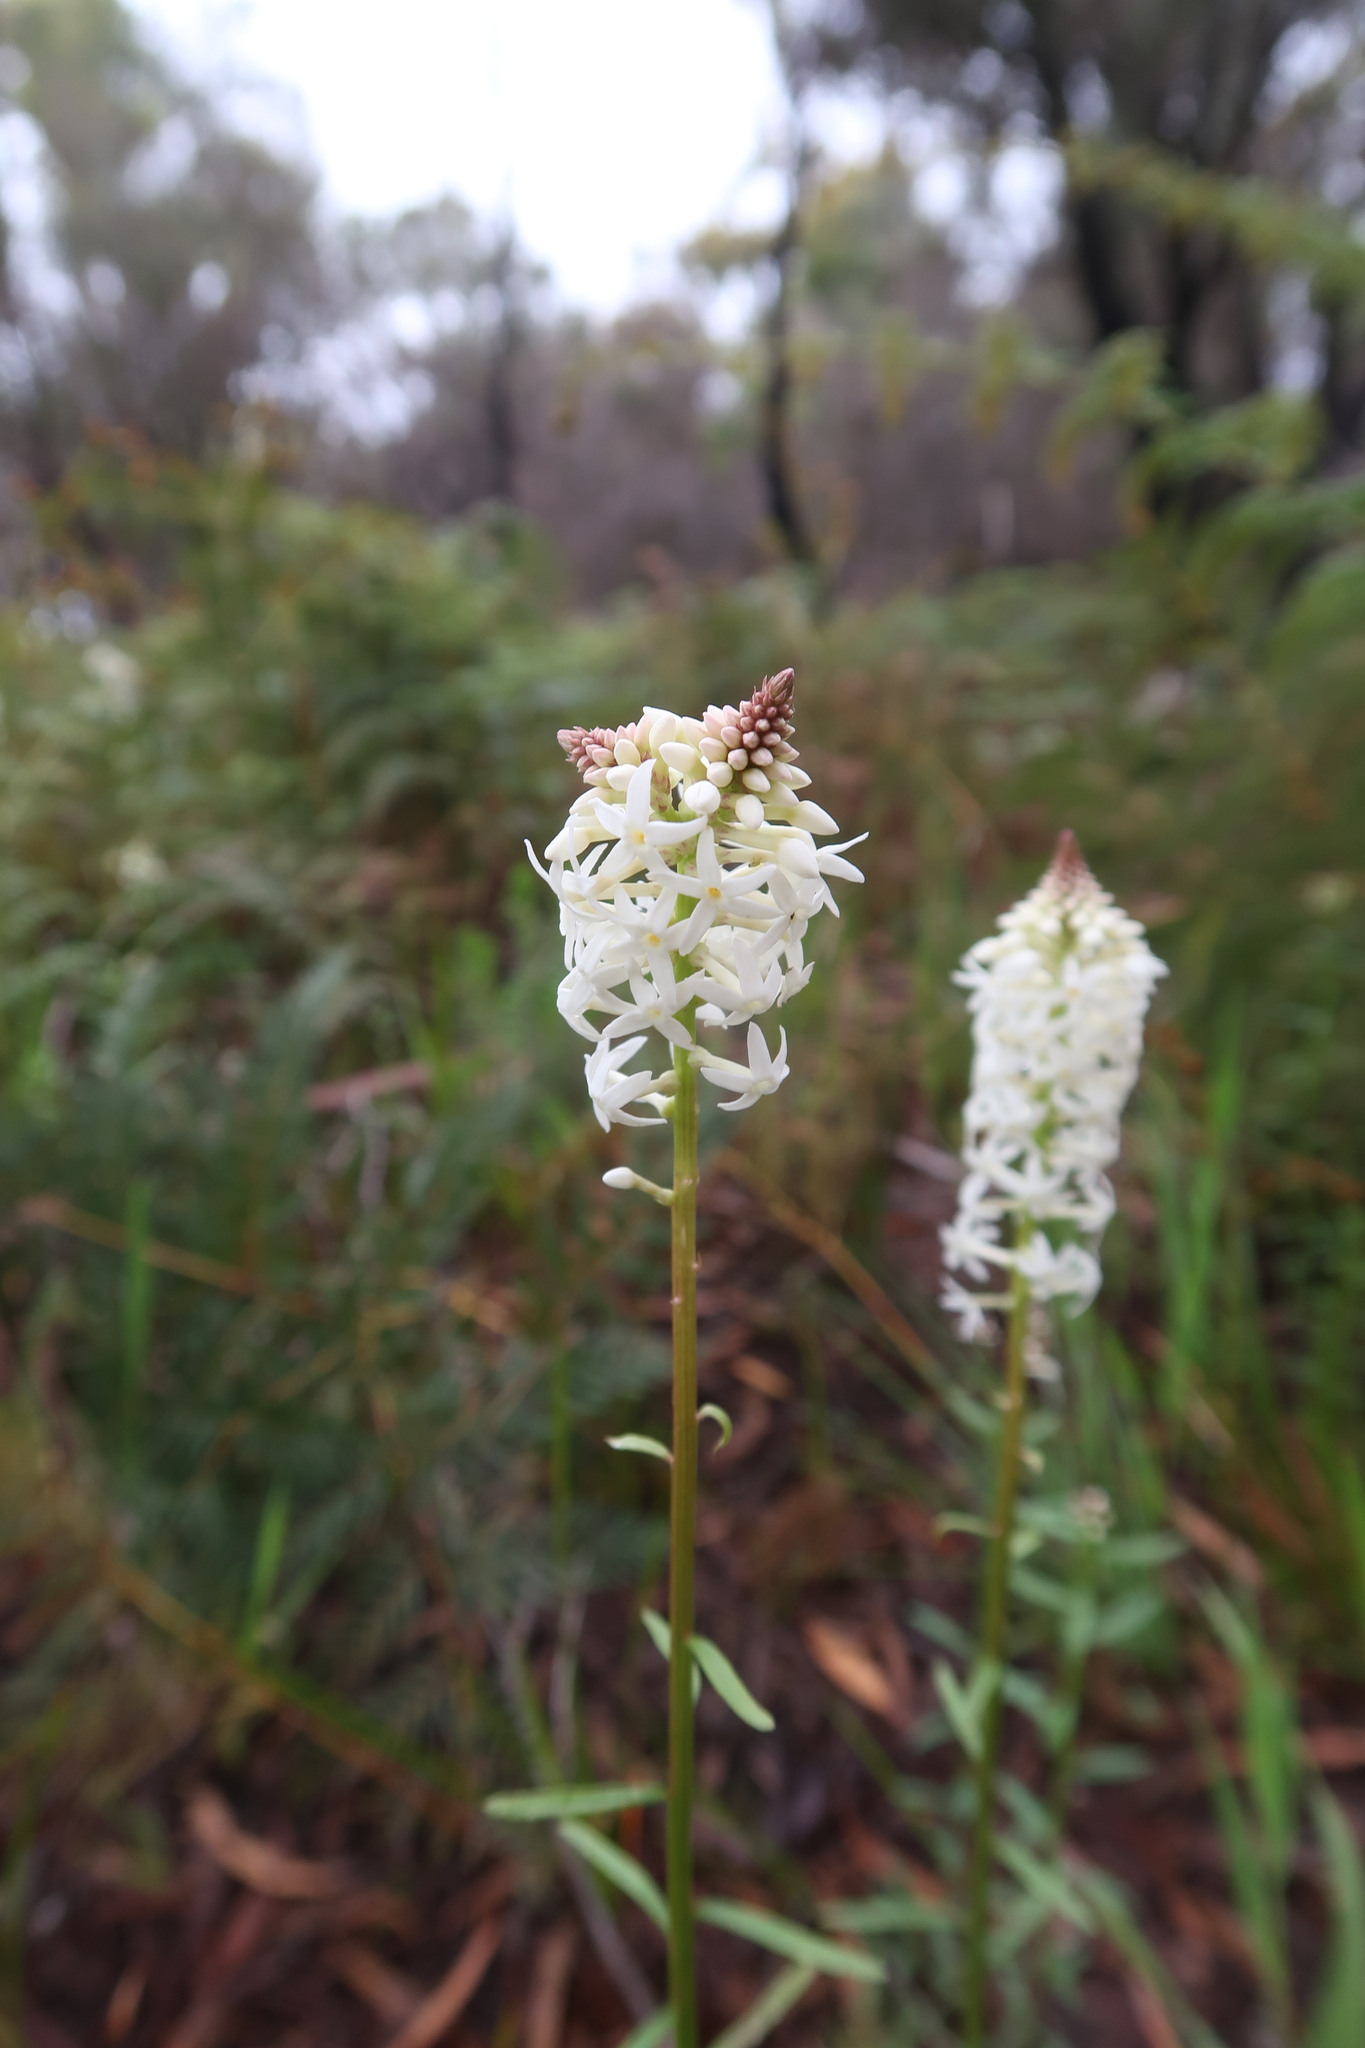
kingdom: Plantae
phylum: Tracheophyta
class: Magnoliopsida
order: Celastrales
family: Celastraceae
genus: Stackhousia
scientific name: Stackhousia monogyna
